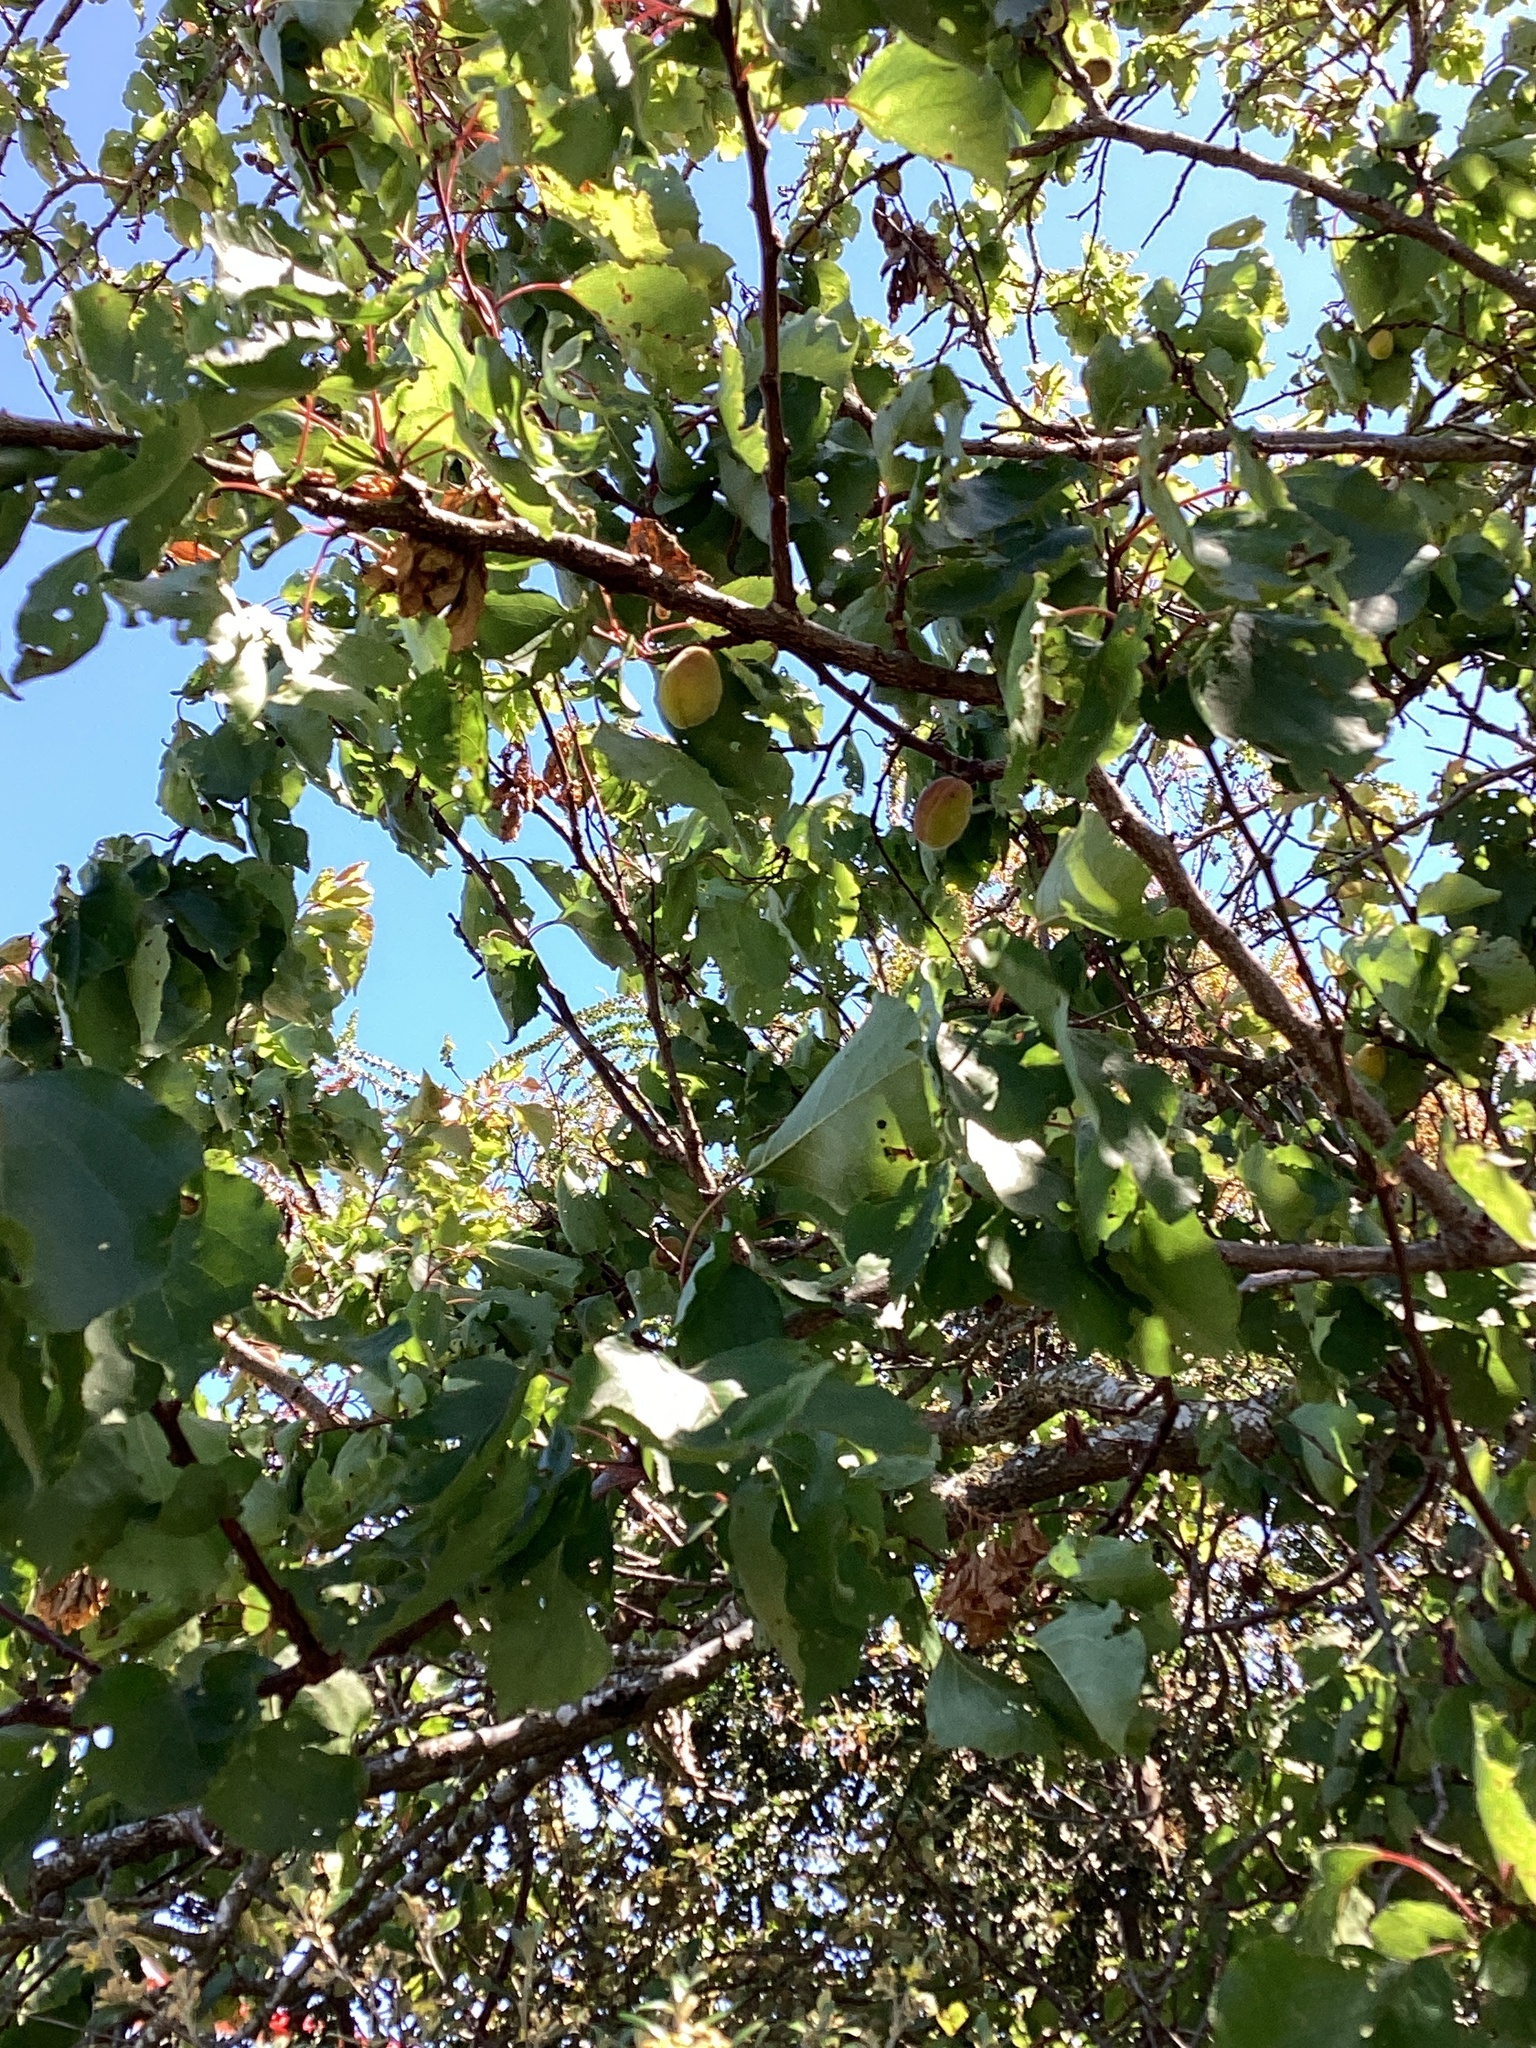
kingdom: Plantae
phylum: Tracheophyta
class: Magnoliopsida
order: Rosales
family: Rosaceae
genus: Prunus
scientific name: Prunus armeniaca
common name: Apricot
